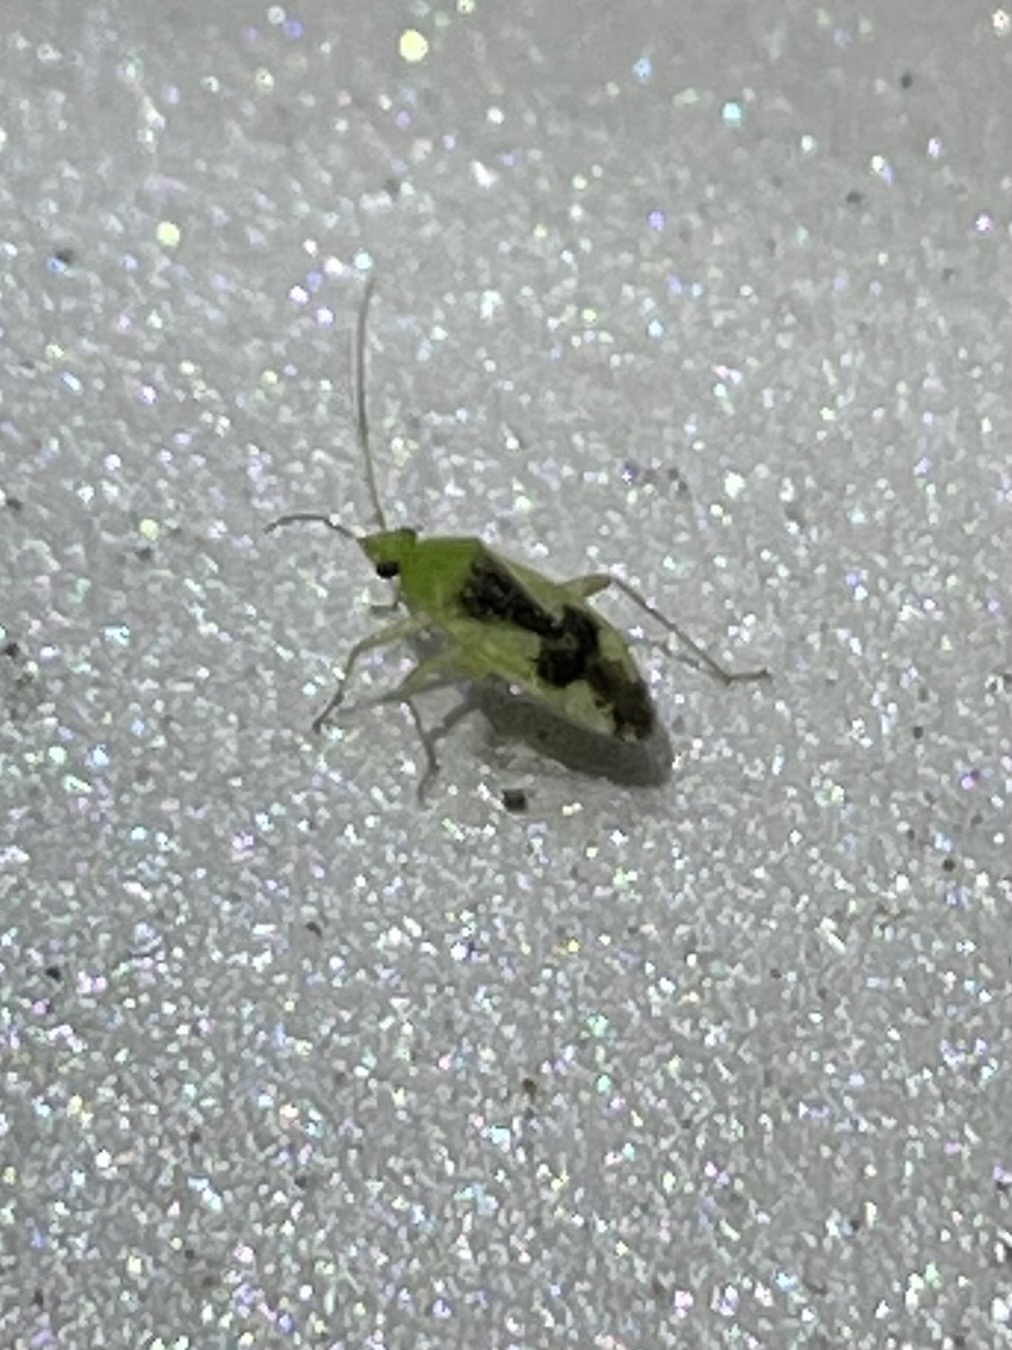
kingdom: Animalia
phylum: Arthropoda
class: Insecta
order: Hemiptera
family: Miridae
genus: Reuteroscopus
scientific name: Reuteroscopus ornatus
